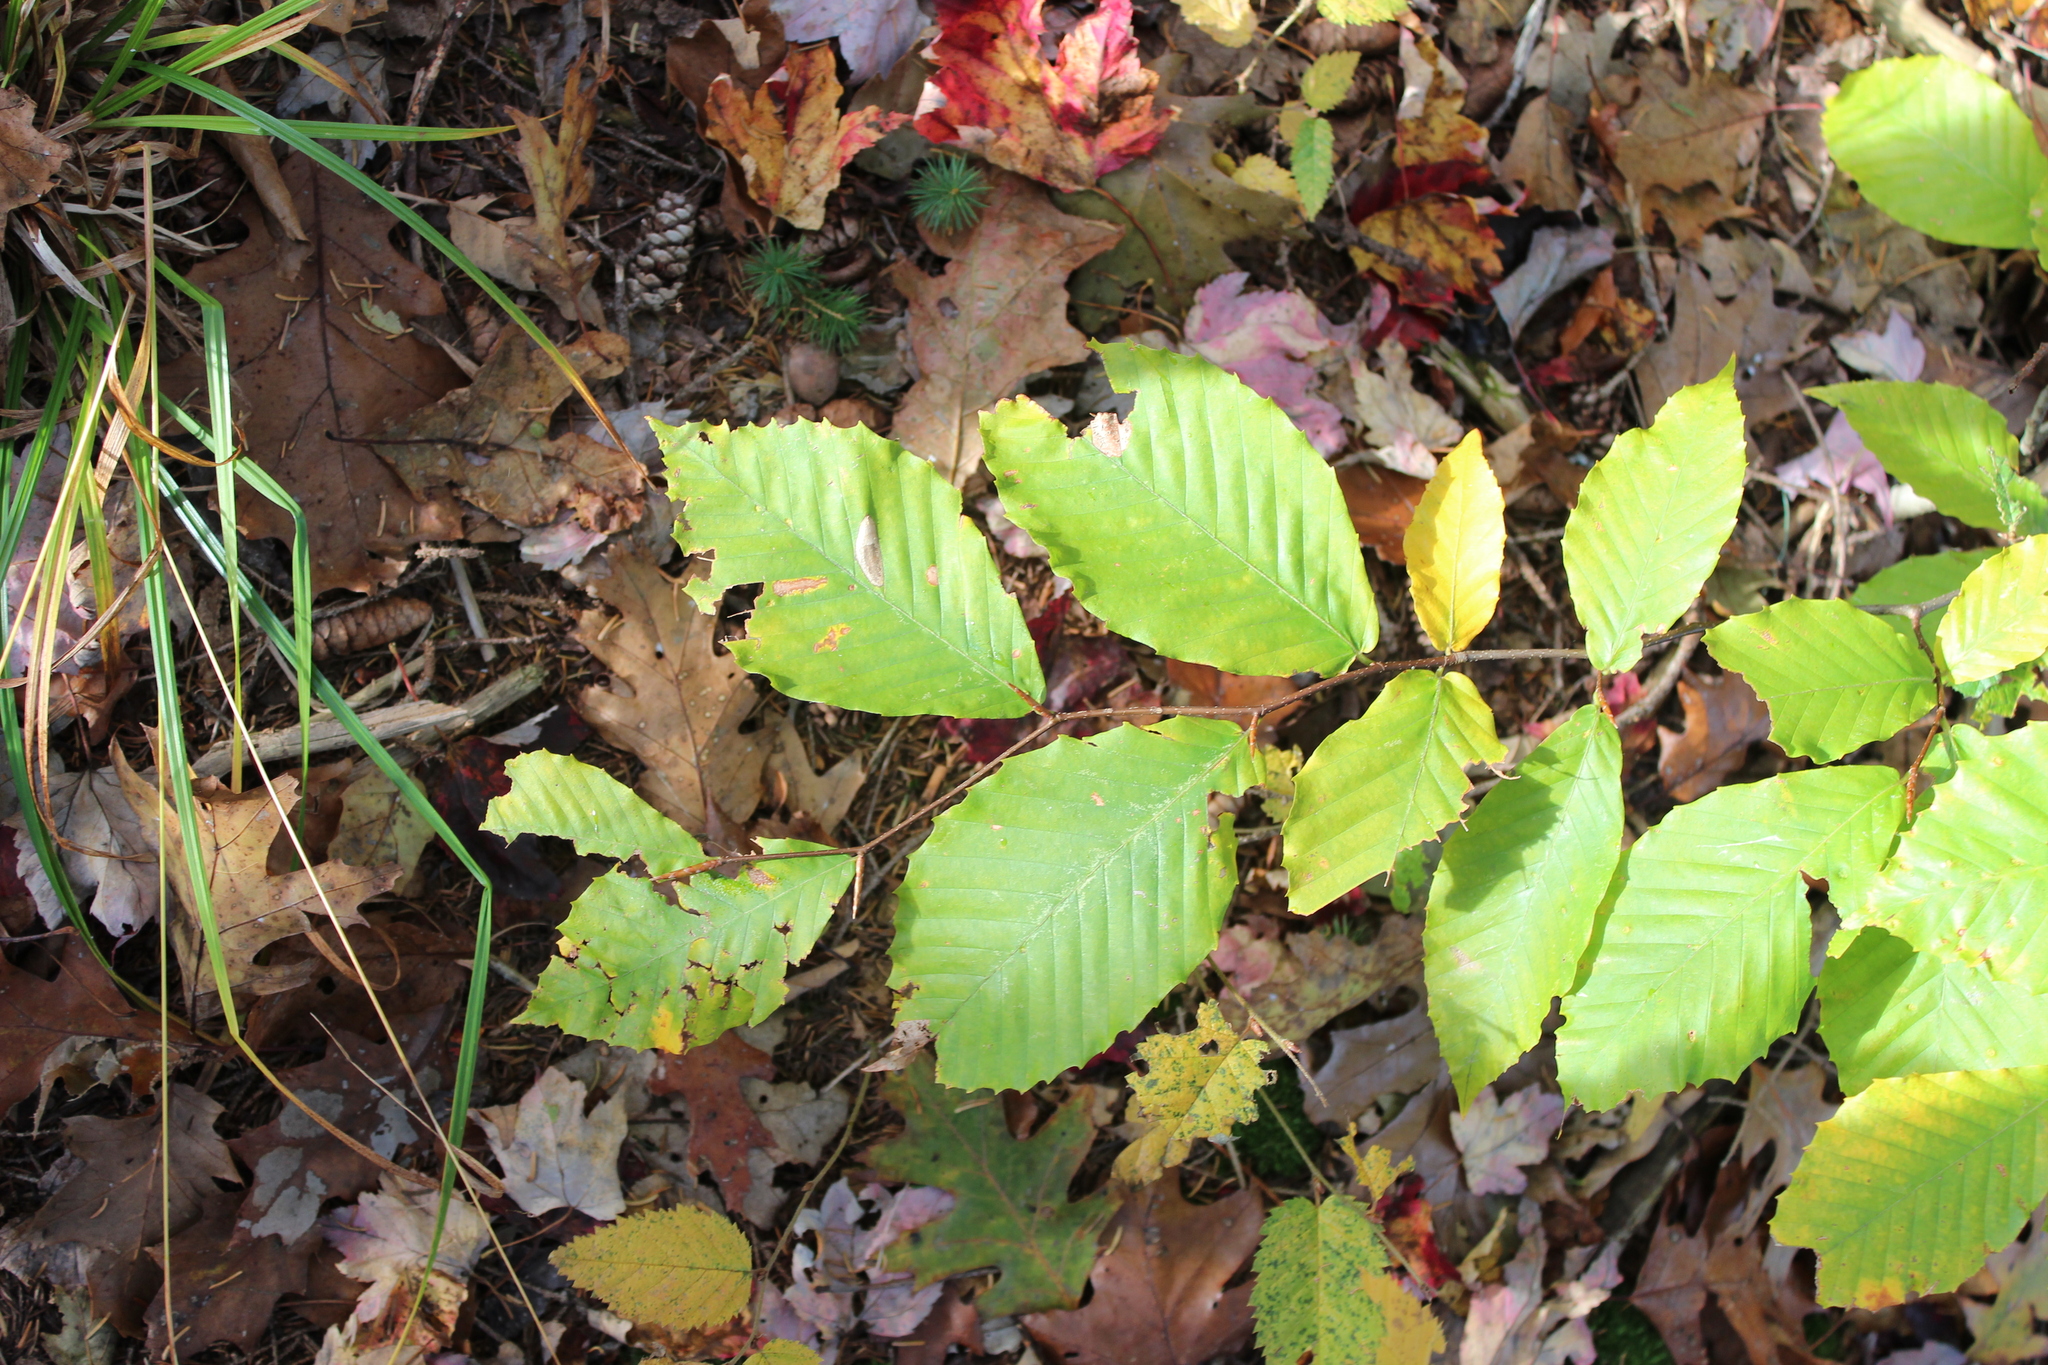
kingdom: Plantae
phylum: Tracheophyta
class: Magnoliopsida
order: Fagales
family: Fagaceae
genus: Fagus
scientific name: Fagus grandifolia
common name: American beech
